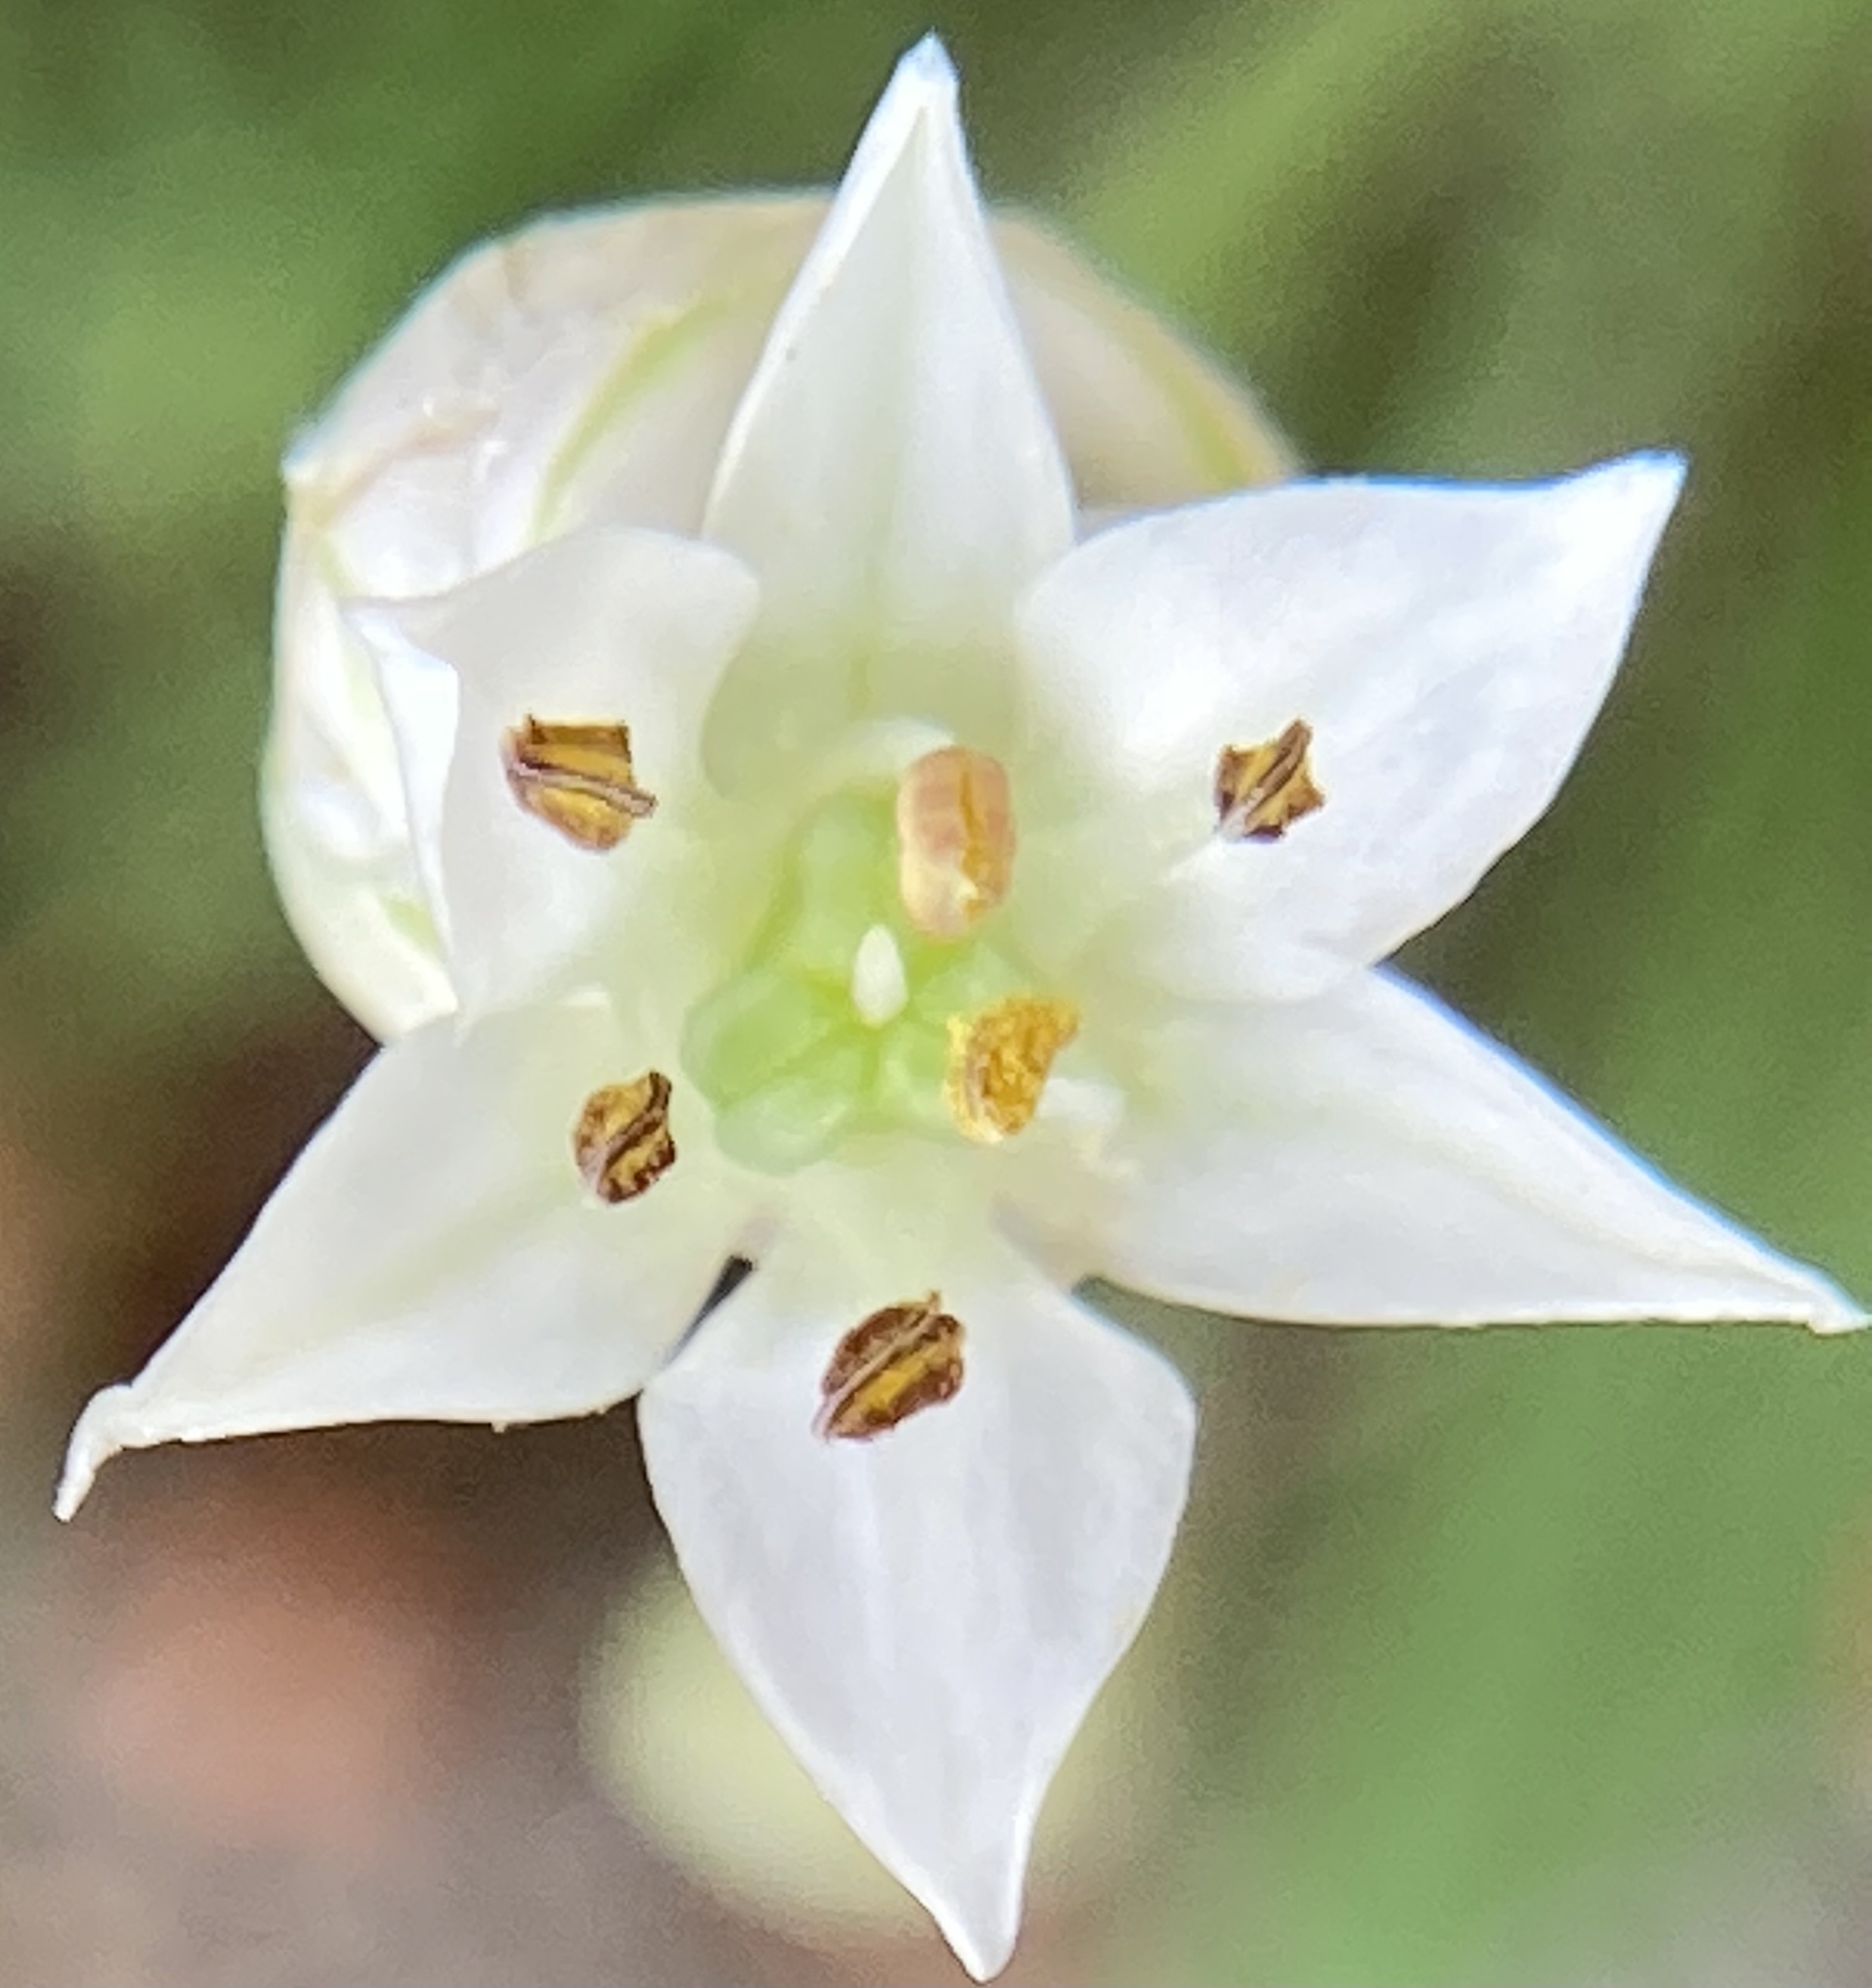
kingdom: Plantae
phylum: Tracheophyta
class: Liliopsida
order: Asparagales
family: Amaryllidaceae
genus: Allium
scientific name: Allium tuberosum
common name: Chinese chives
